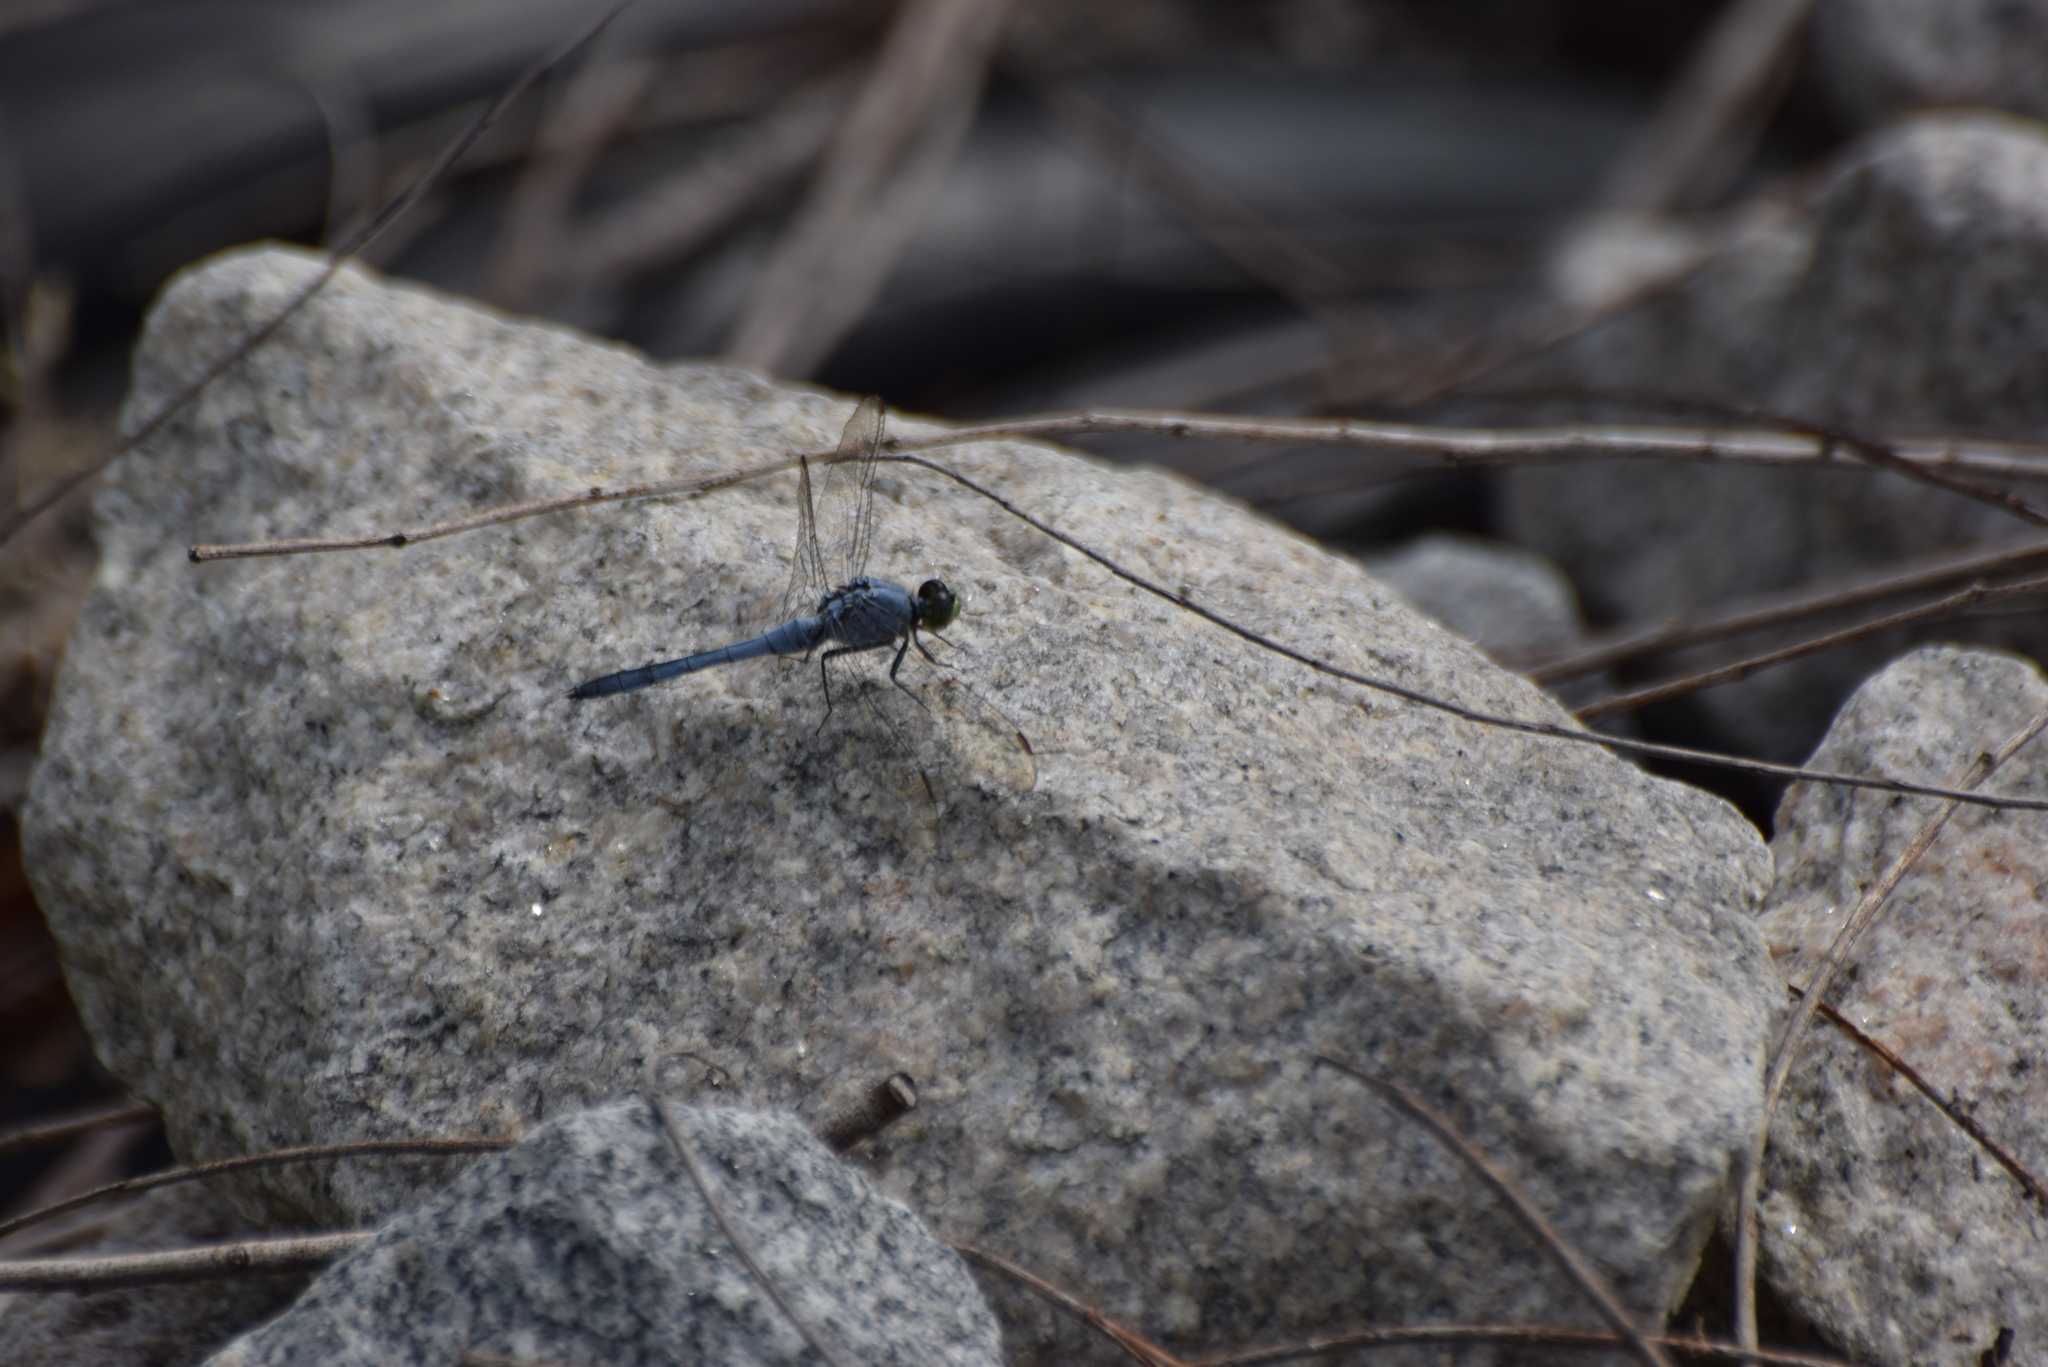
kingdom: Animalia
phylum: Arthropoda
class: Insecta
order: Odonata
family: Libellulidae
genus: Erythemis
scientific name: Erythemis simplicicollis
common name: Eastern pondhawk
